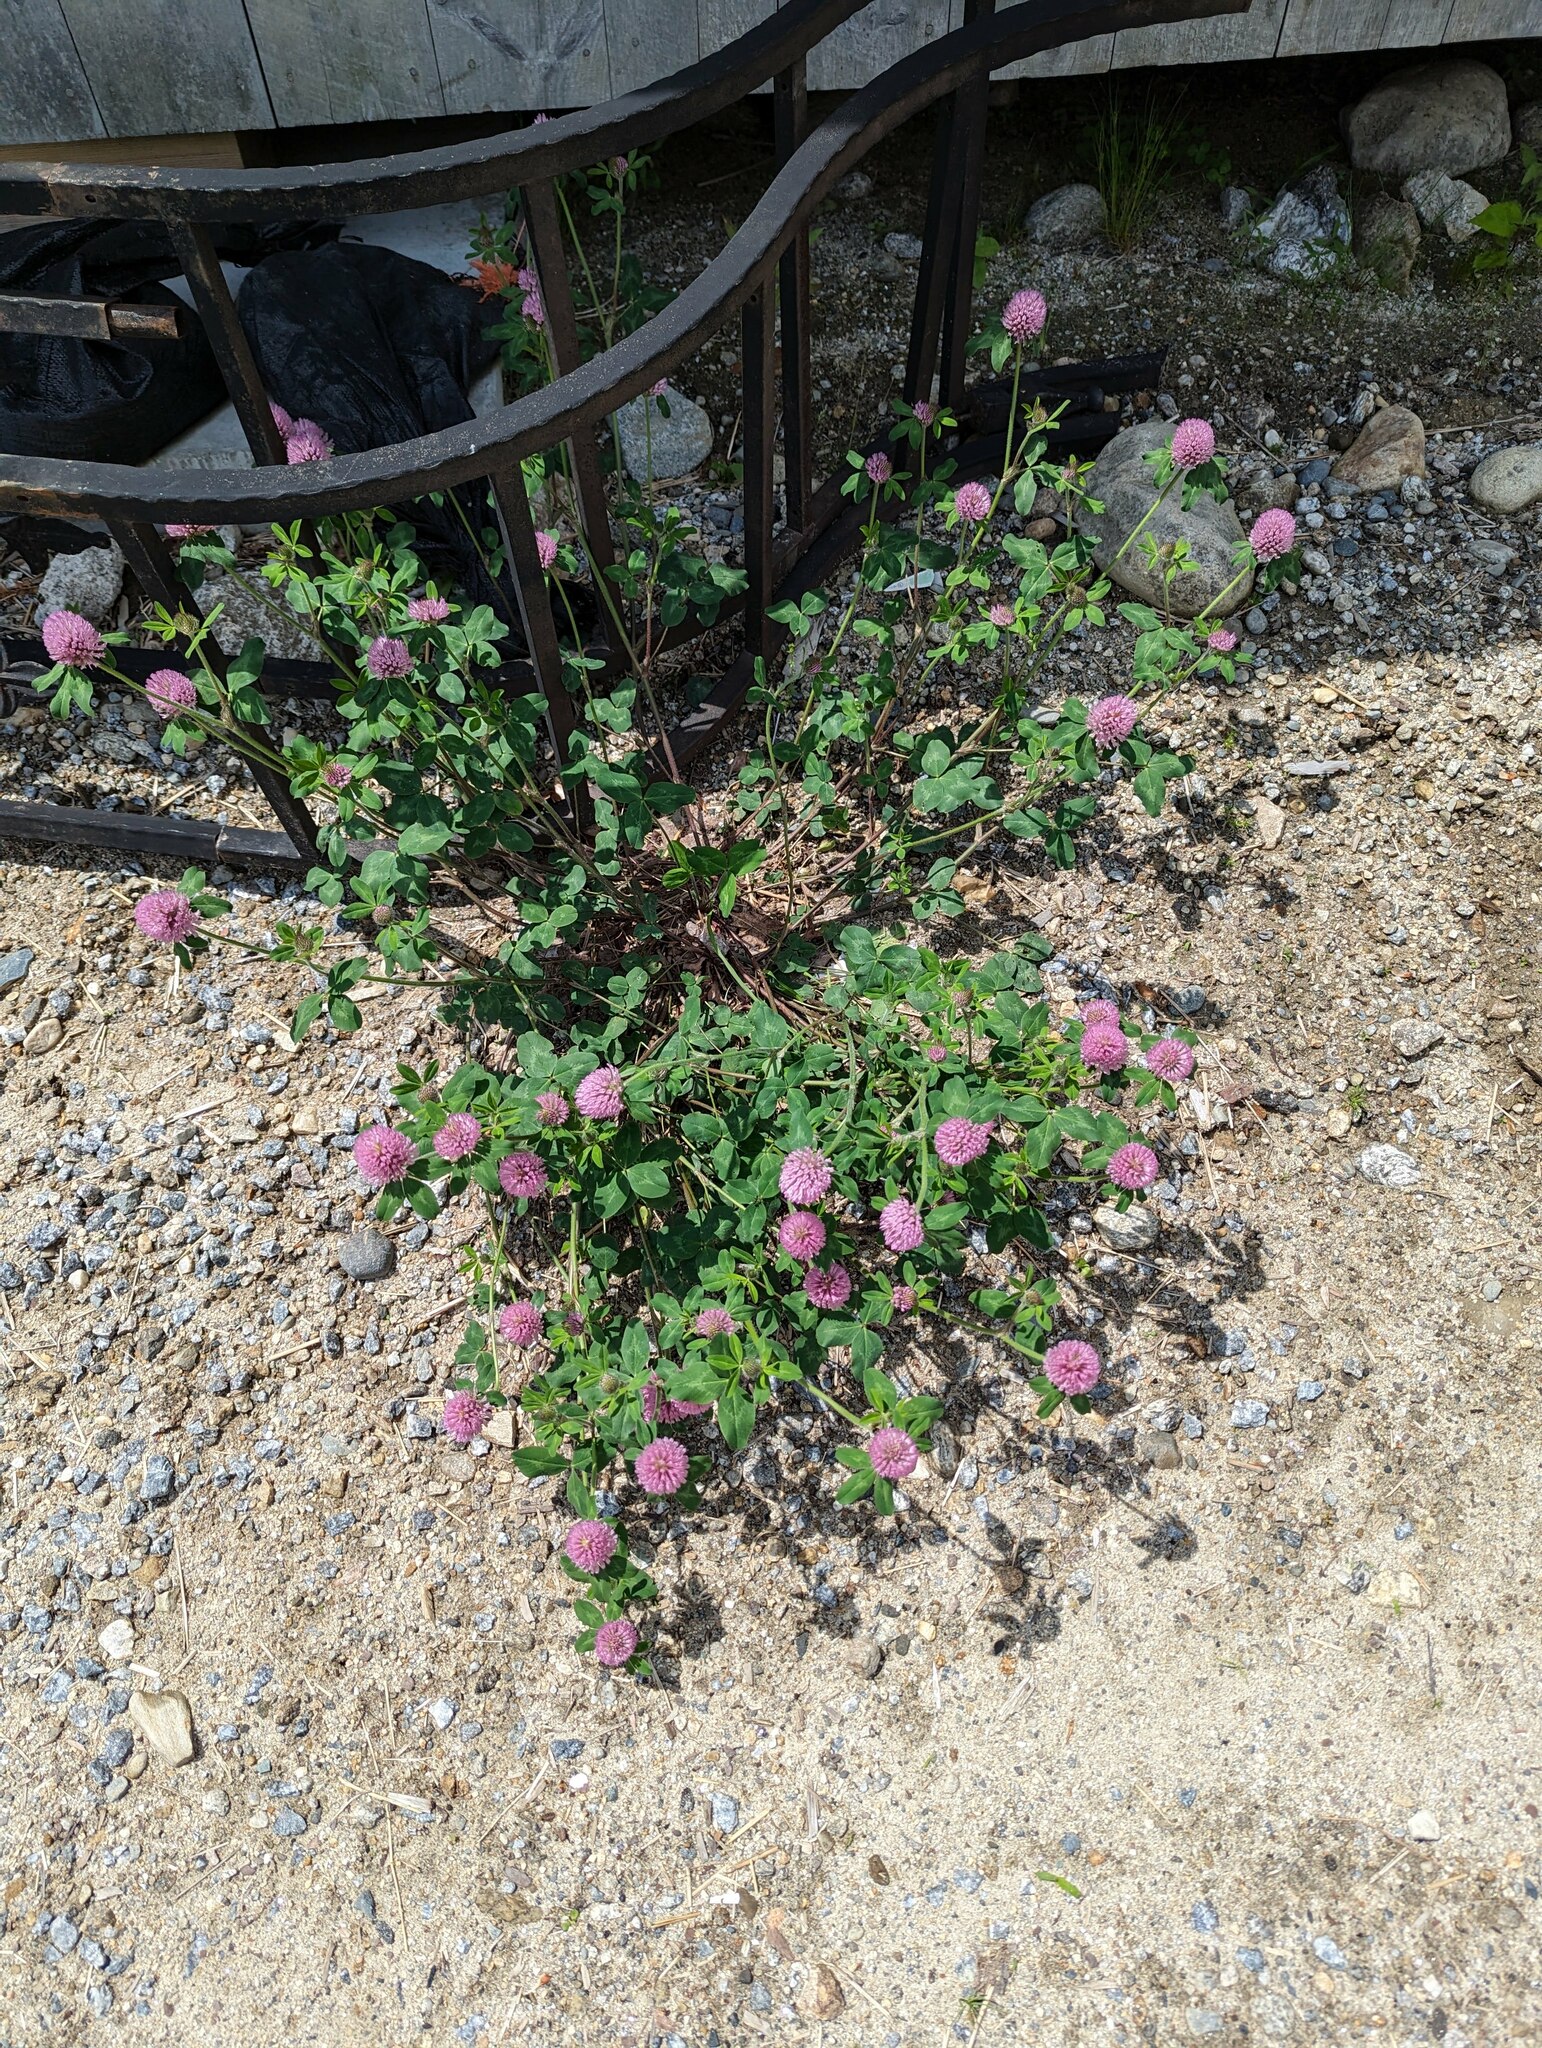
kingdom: Plantae
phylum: Tracheophyta
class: Magnoliopsida
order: Fabales
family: Fabaceae
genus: Trifolium
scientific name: Trifolium pratense
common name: Red clover
